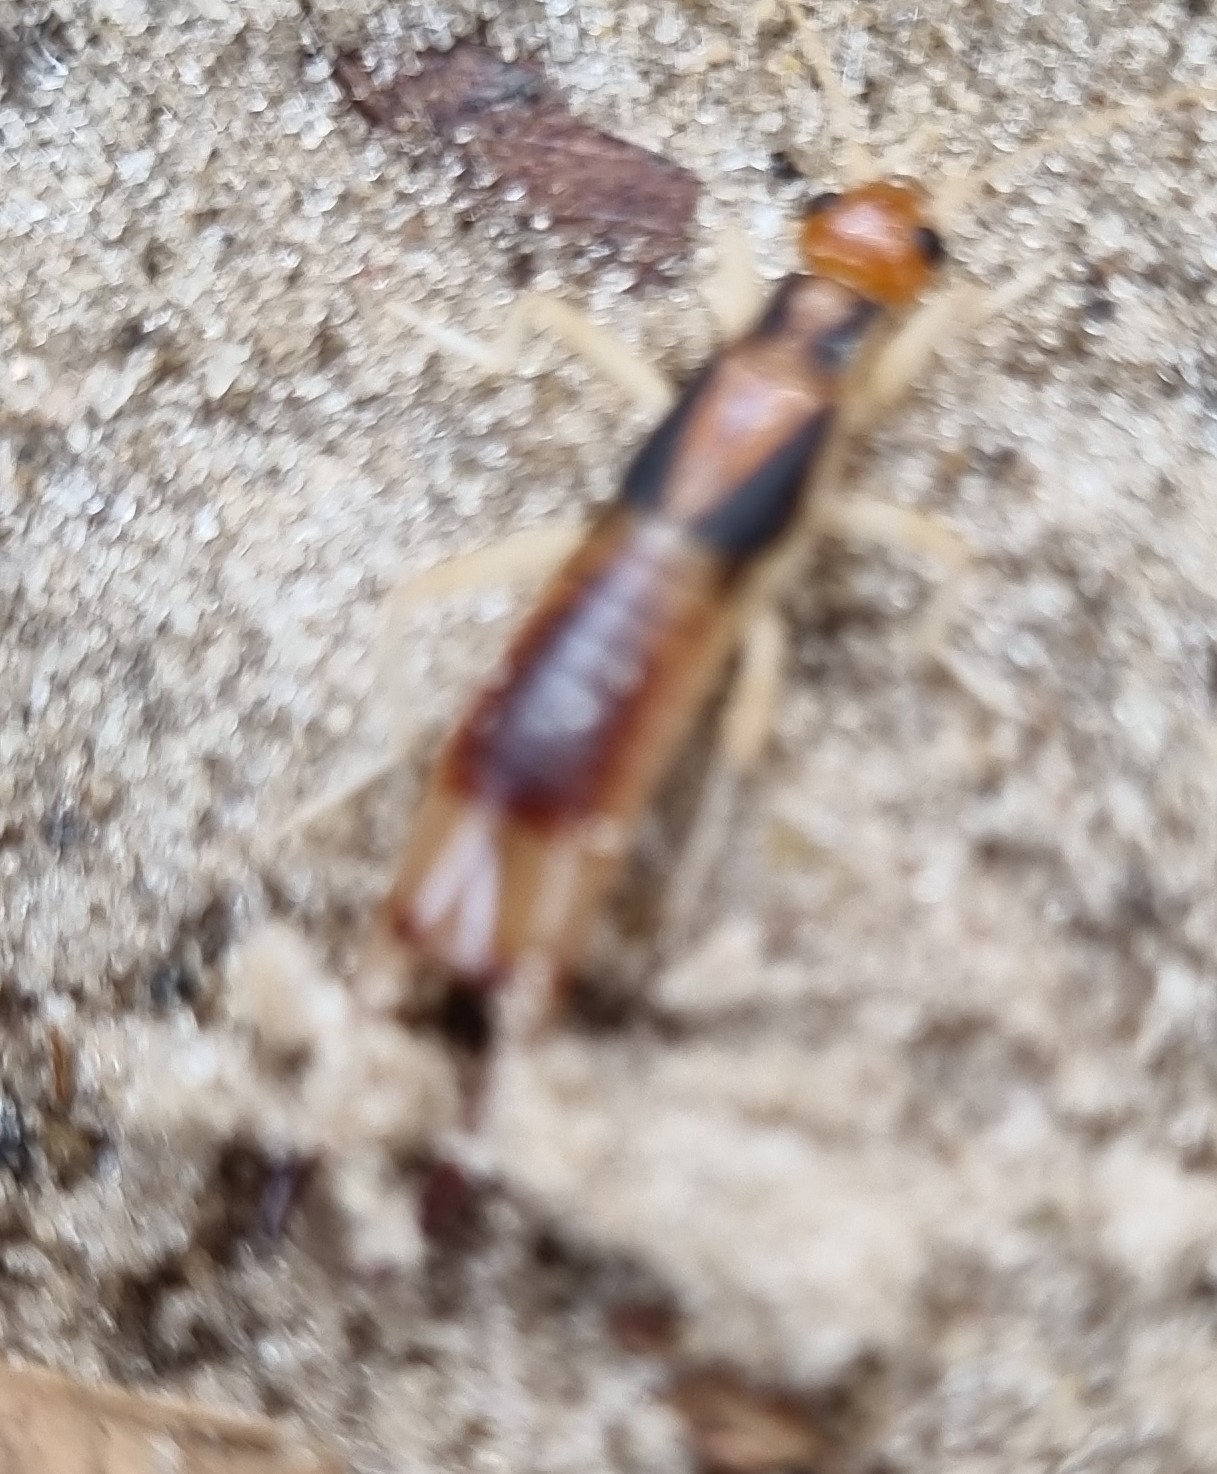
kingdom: Animalia
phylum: Arthropoda
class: Insecta
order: Dermaptera
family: Labiduridae
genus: Labidura
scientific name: Labidura riparia
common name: Striped earwig
